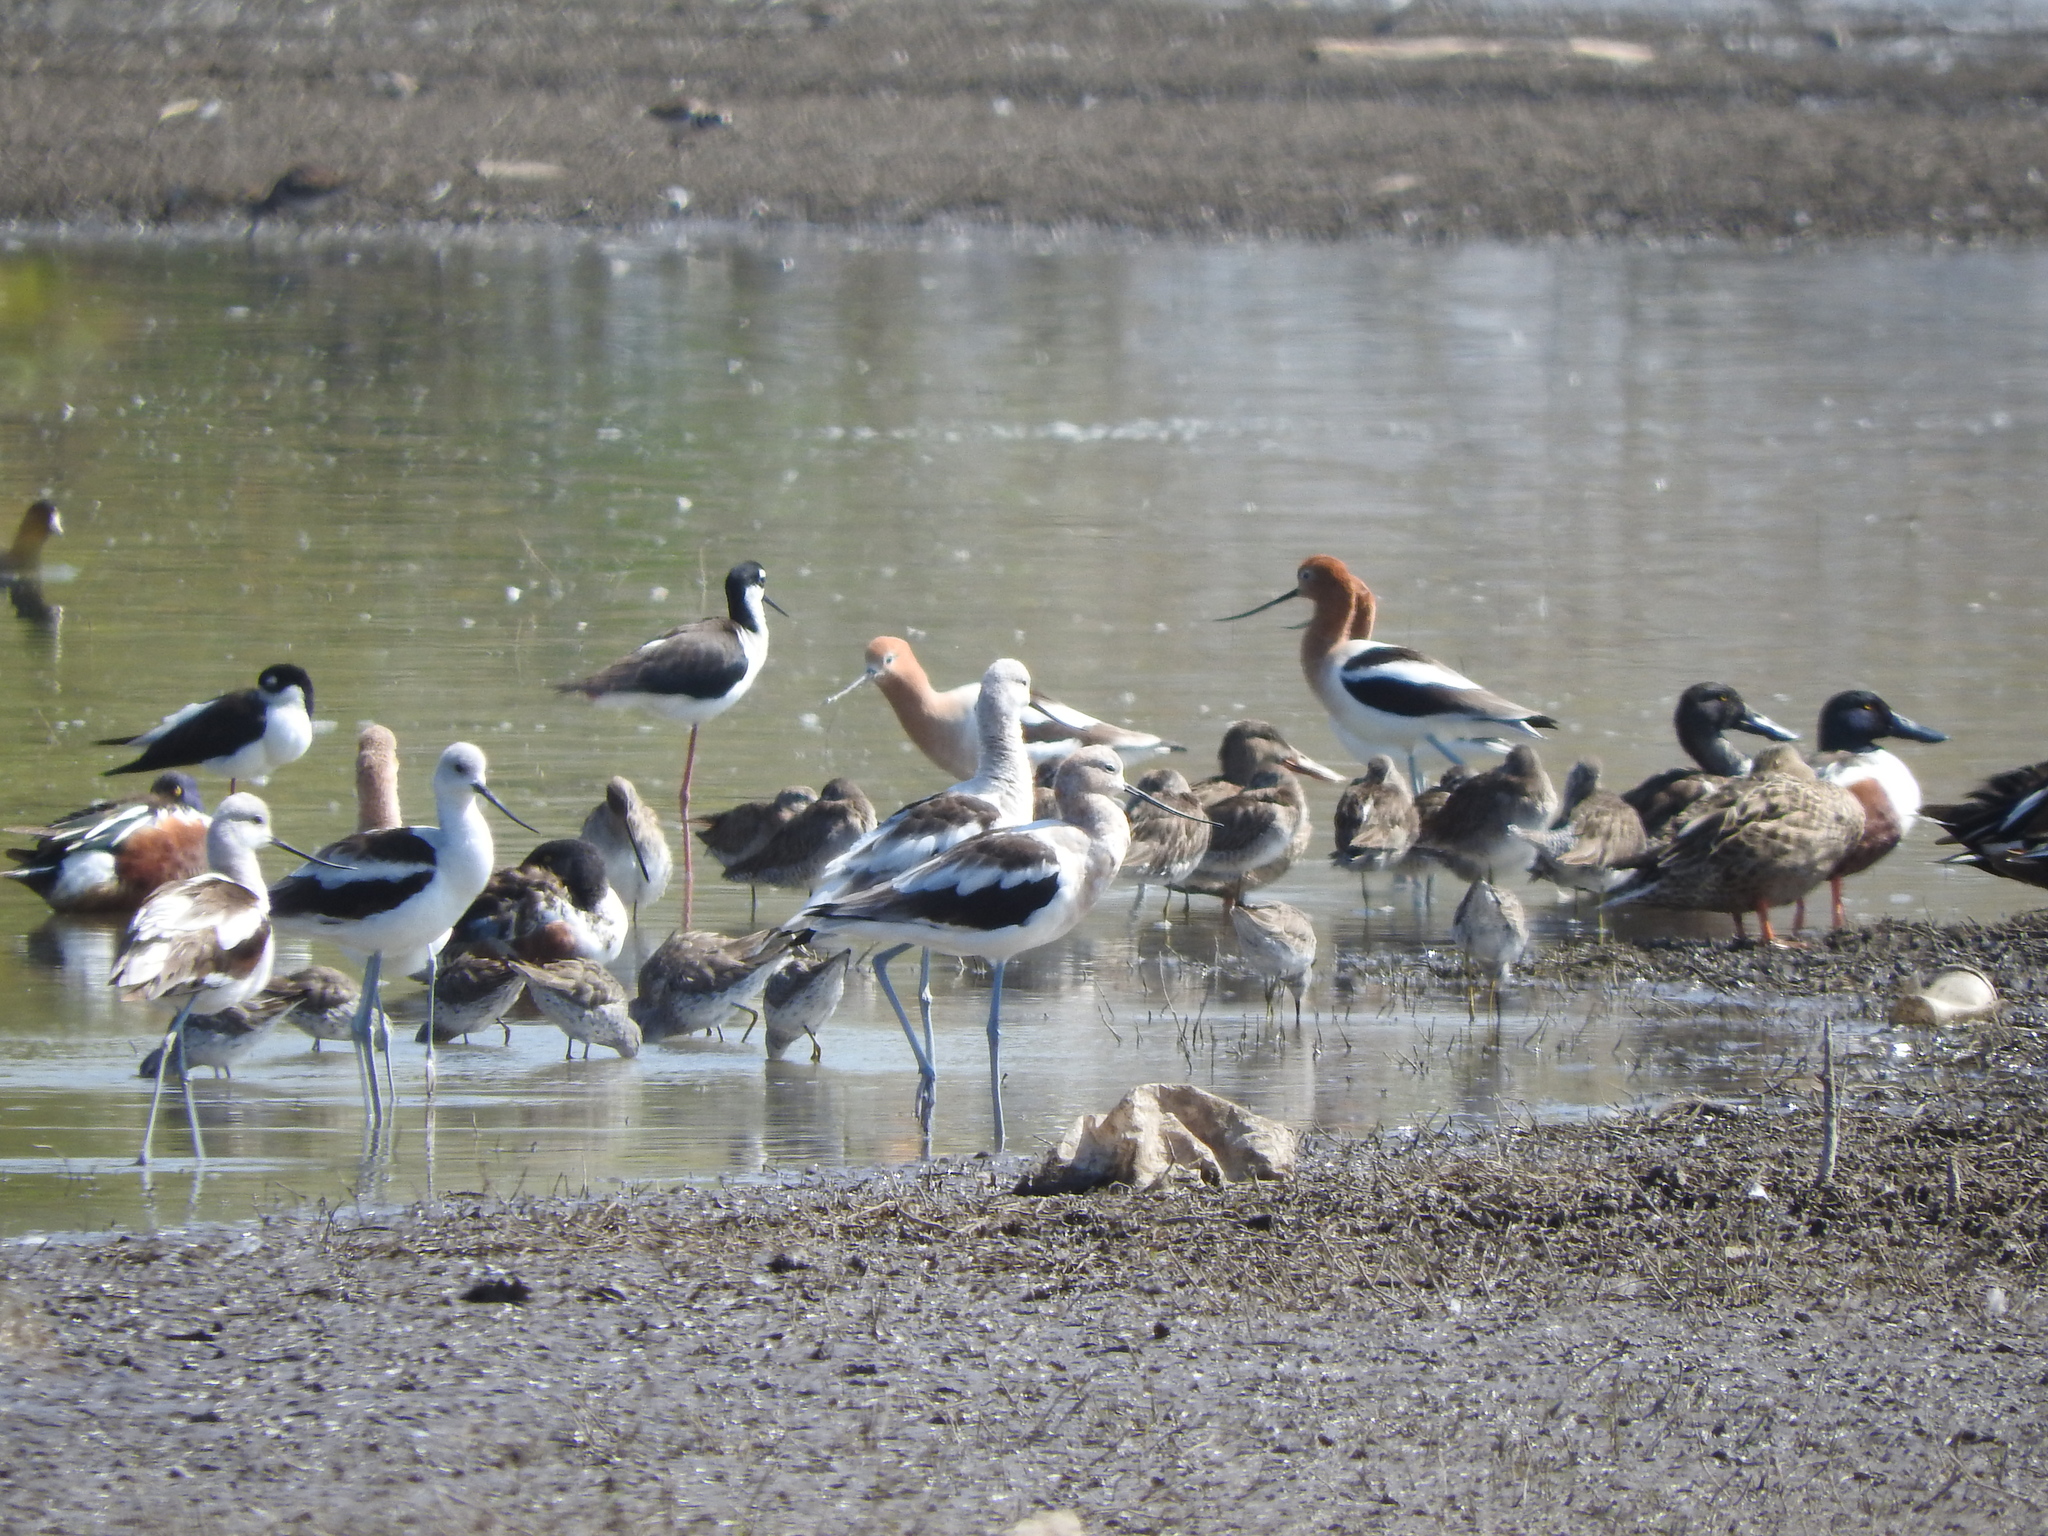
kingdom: Animalia
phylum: Chordata
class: Aves
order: Charadriiformes
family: Recurvirostridae
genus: Recurvirostra
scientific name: Recurvirostra americana
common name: American avocet
